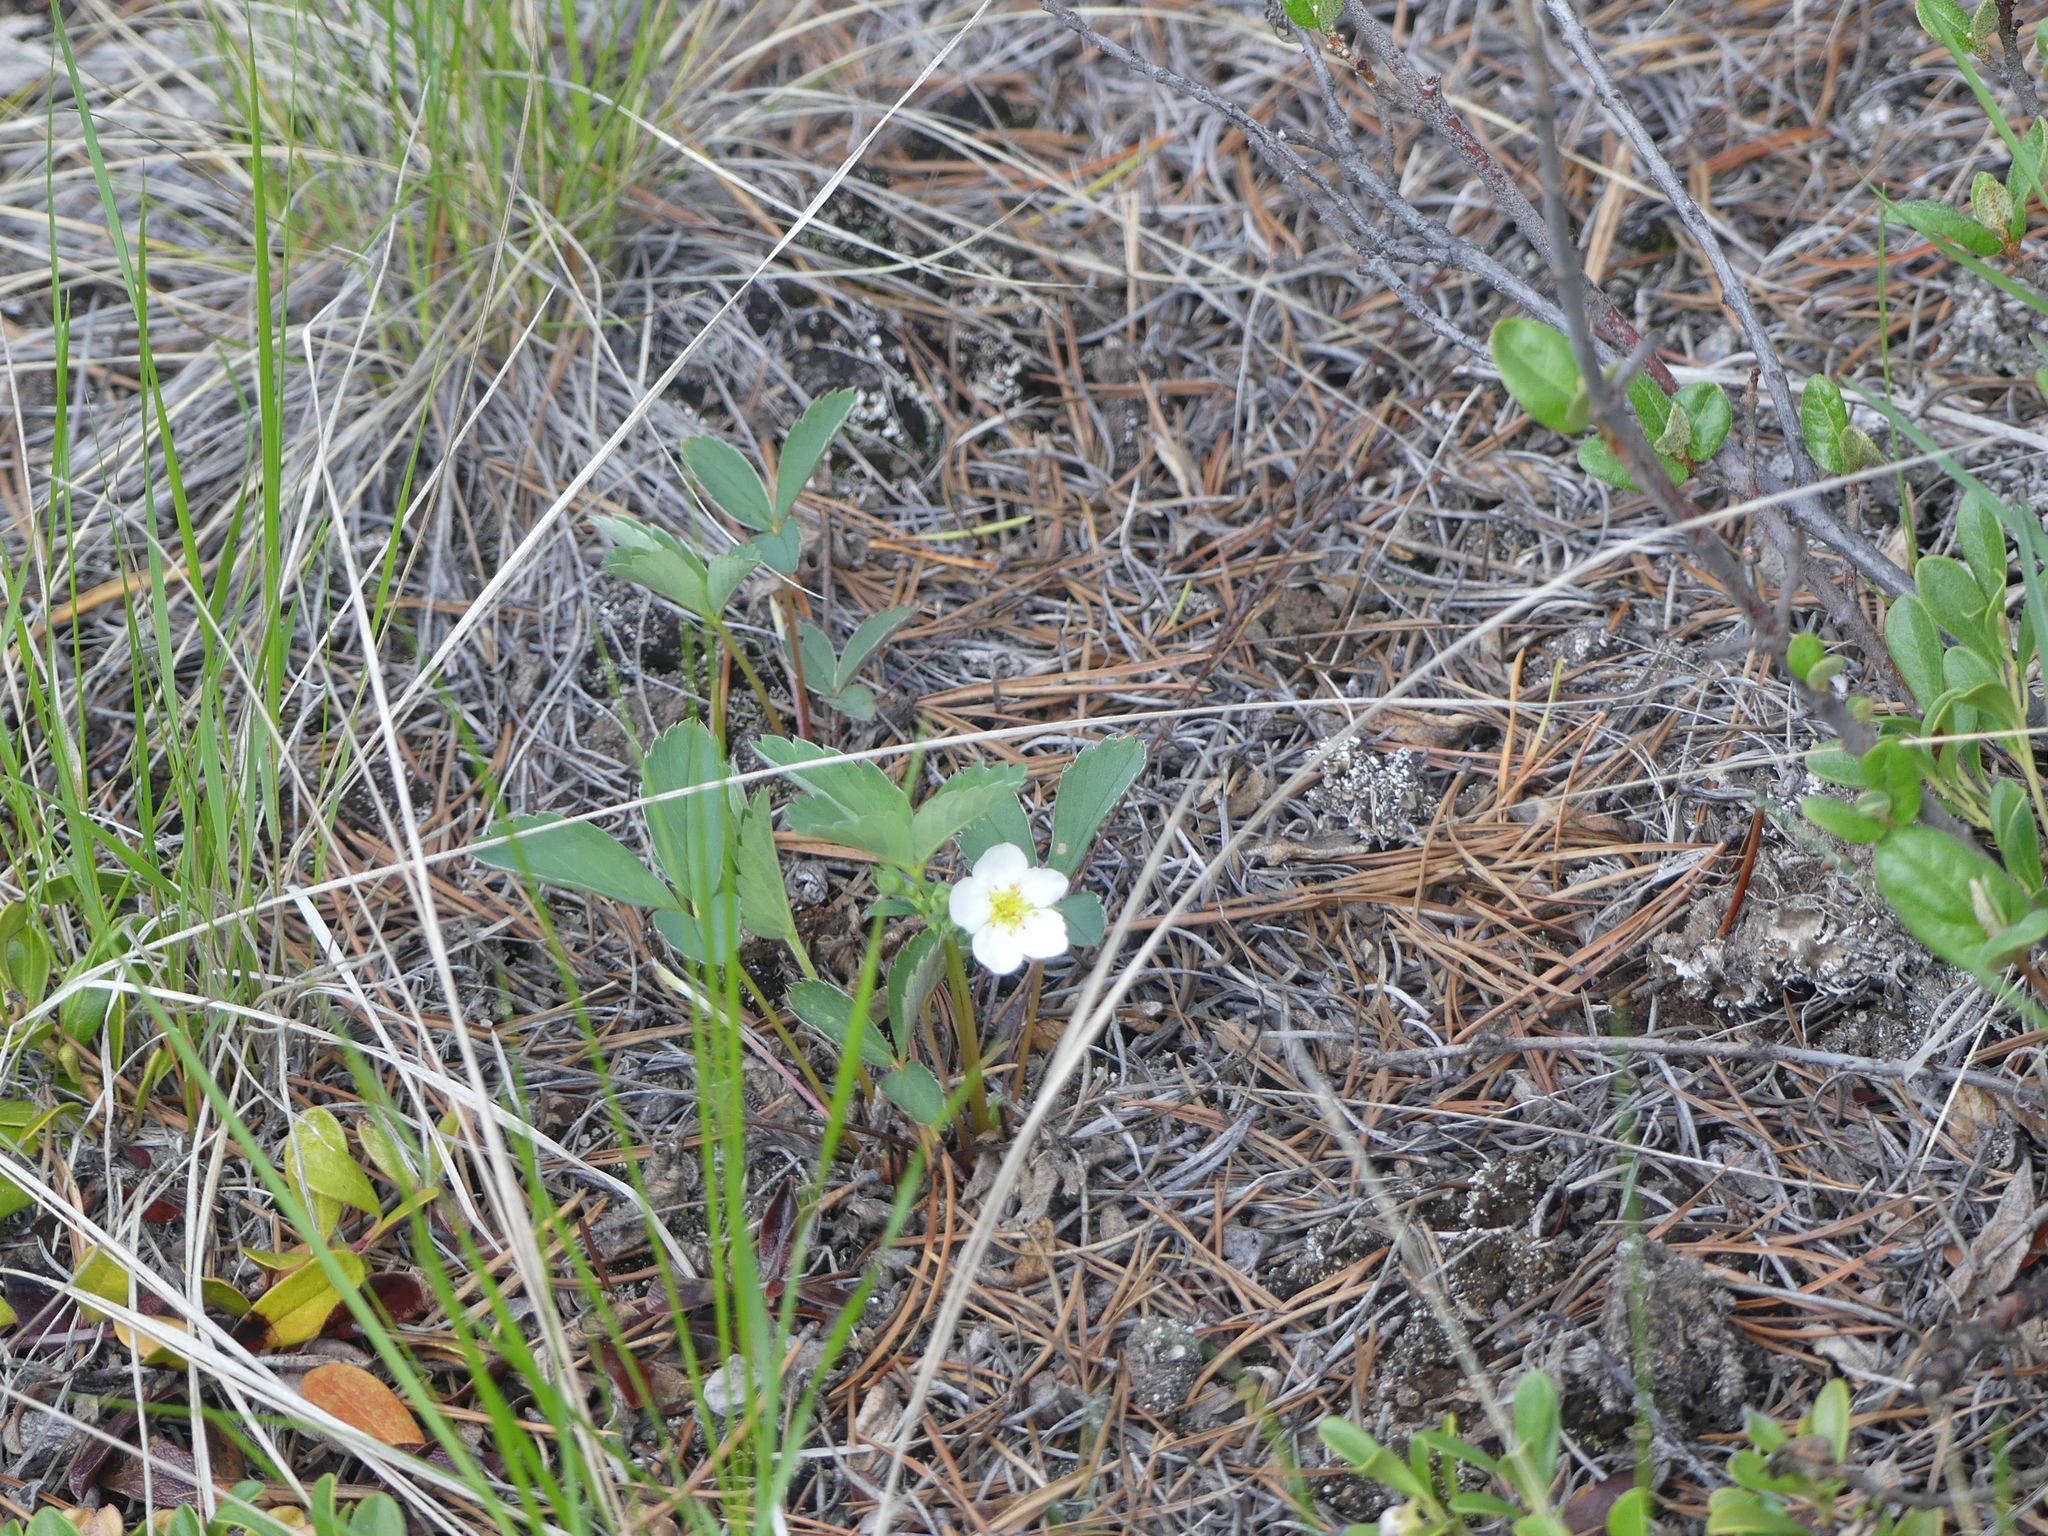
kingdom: Plantae
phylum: Tracheophyta
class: Magnoliopsida
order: Rosales
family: Rosaceae
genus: Fragaria
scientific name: Fragaria virginiana
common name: Thickleaved wild strawberry
